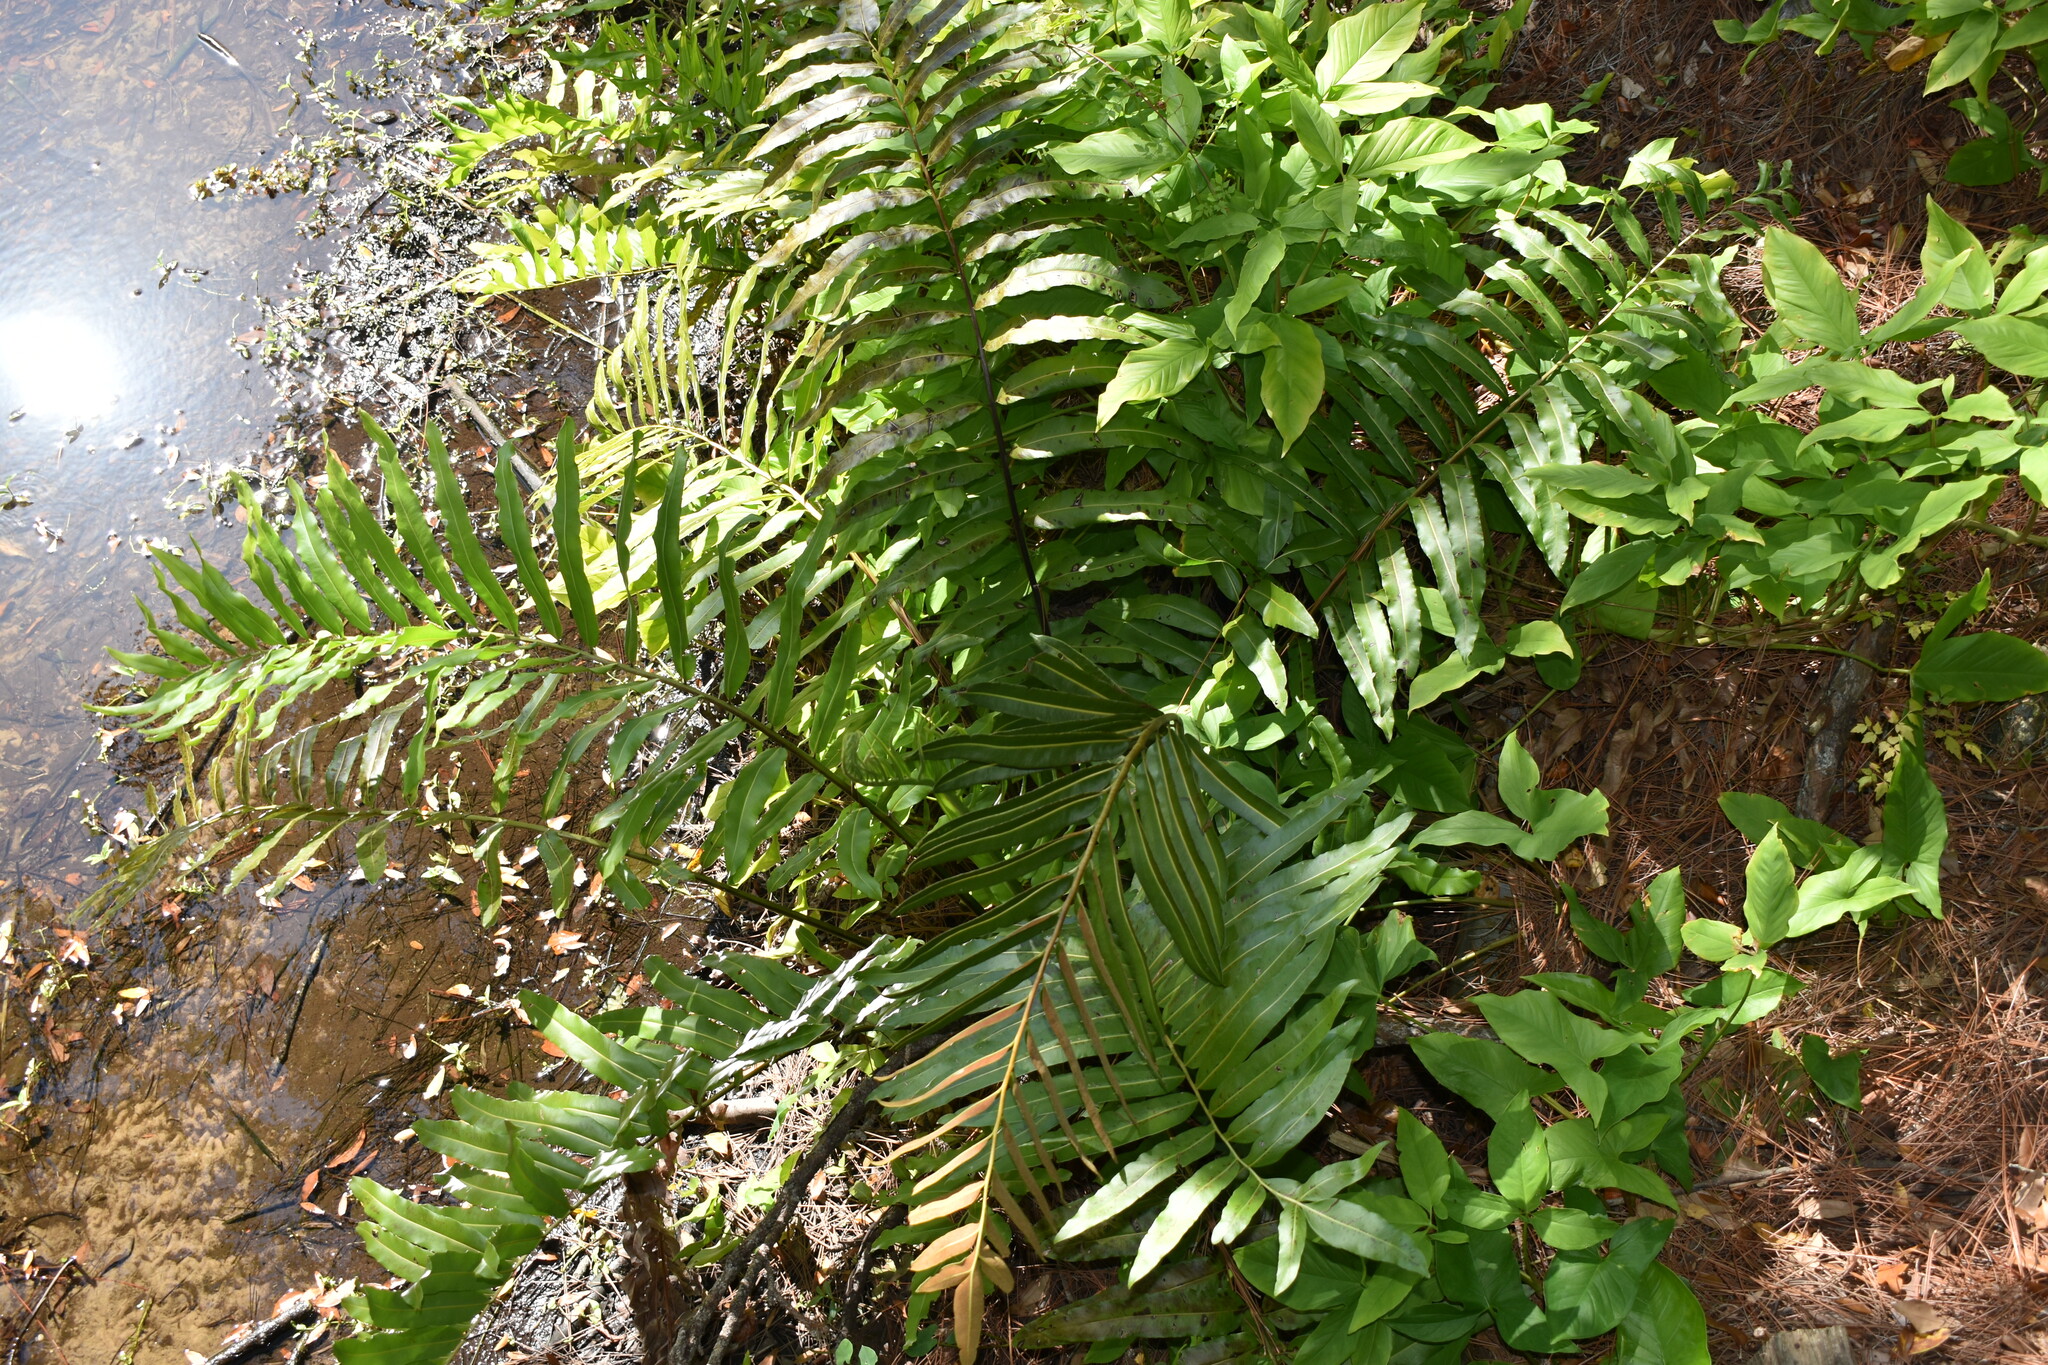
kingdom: Plantae
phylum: Tracheophyta
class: Polypodiopsida
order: Polypodiales
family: Pteridaceae
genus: Acrostichum
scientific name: Acrostichum danaeifolium
